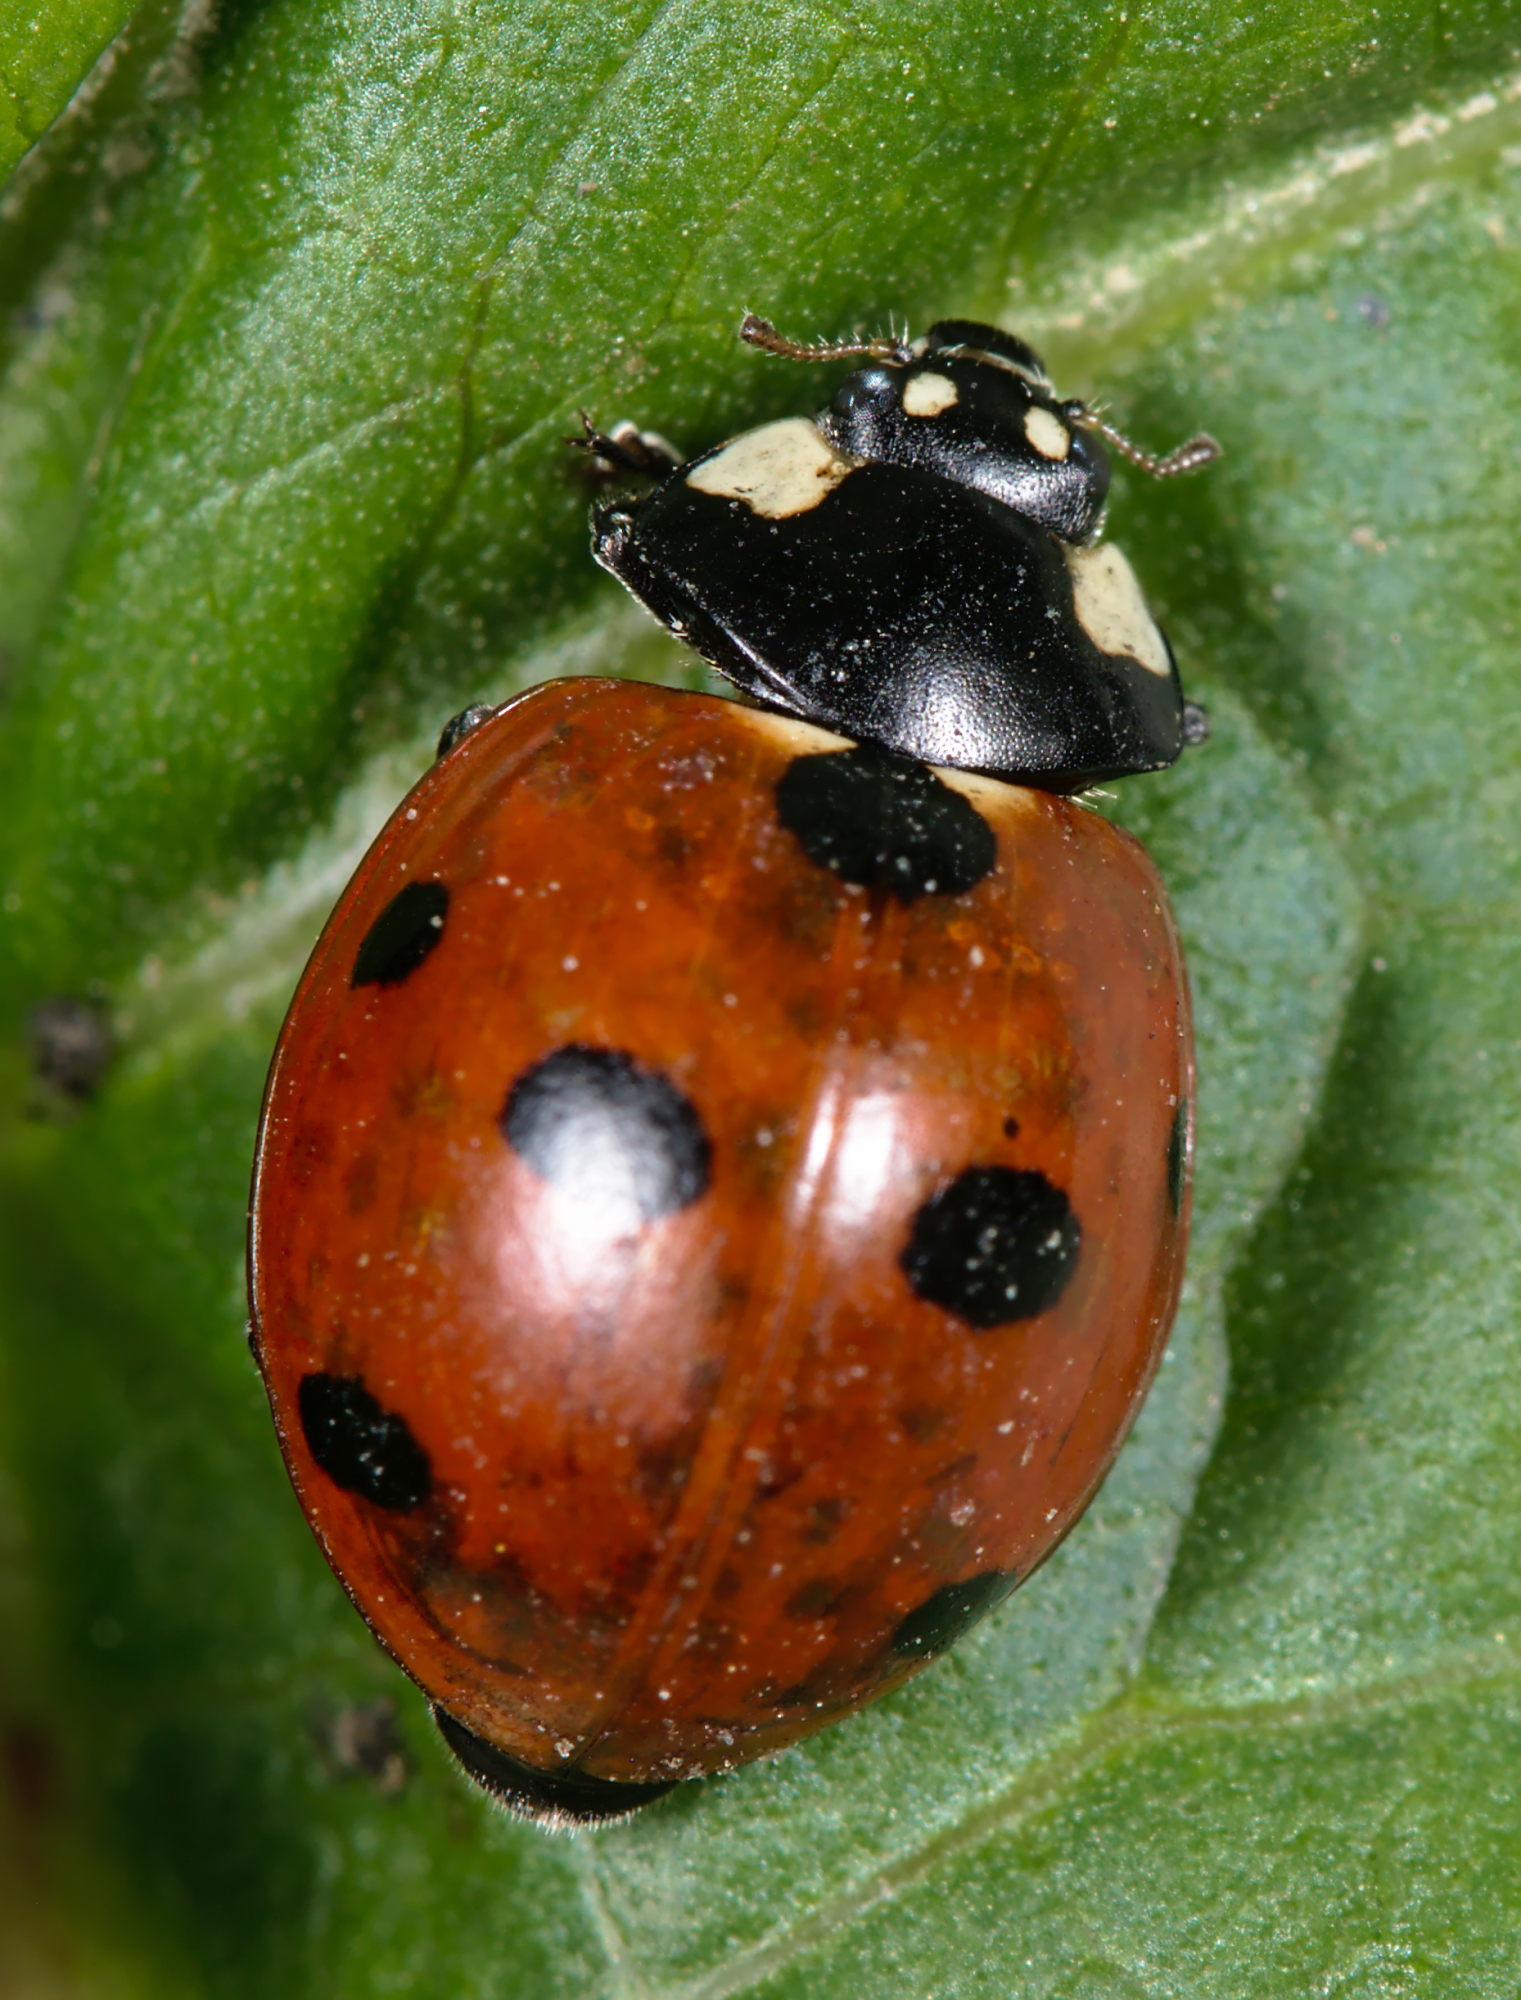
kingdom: Animalia
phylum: Arthropoda
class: Insecta
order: Coleoptera
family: Coccinellidae
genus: Coccinella
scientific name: Coccinella septempunctata
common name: Sevenspotted lady beetle
